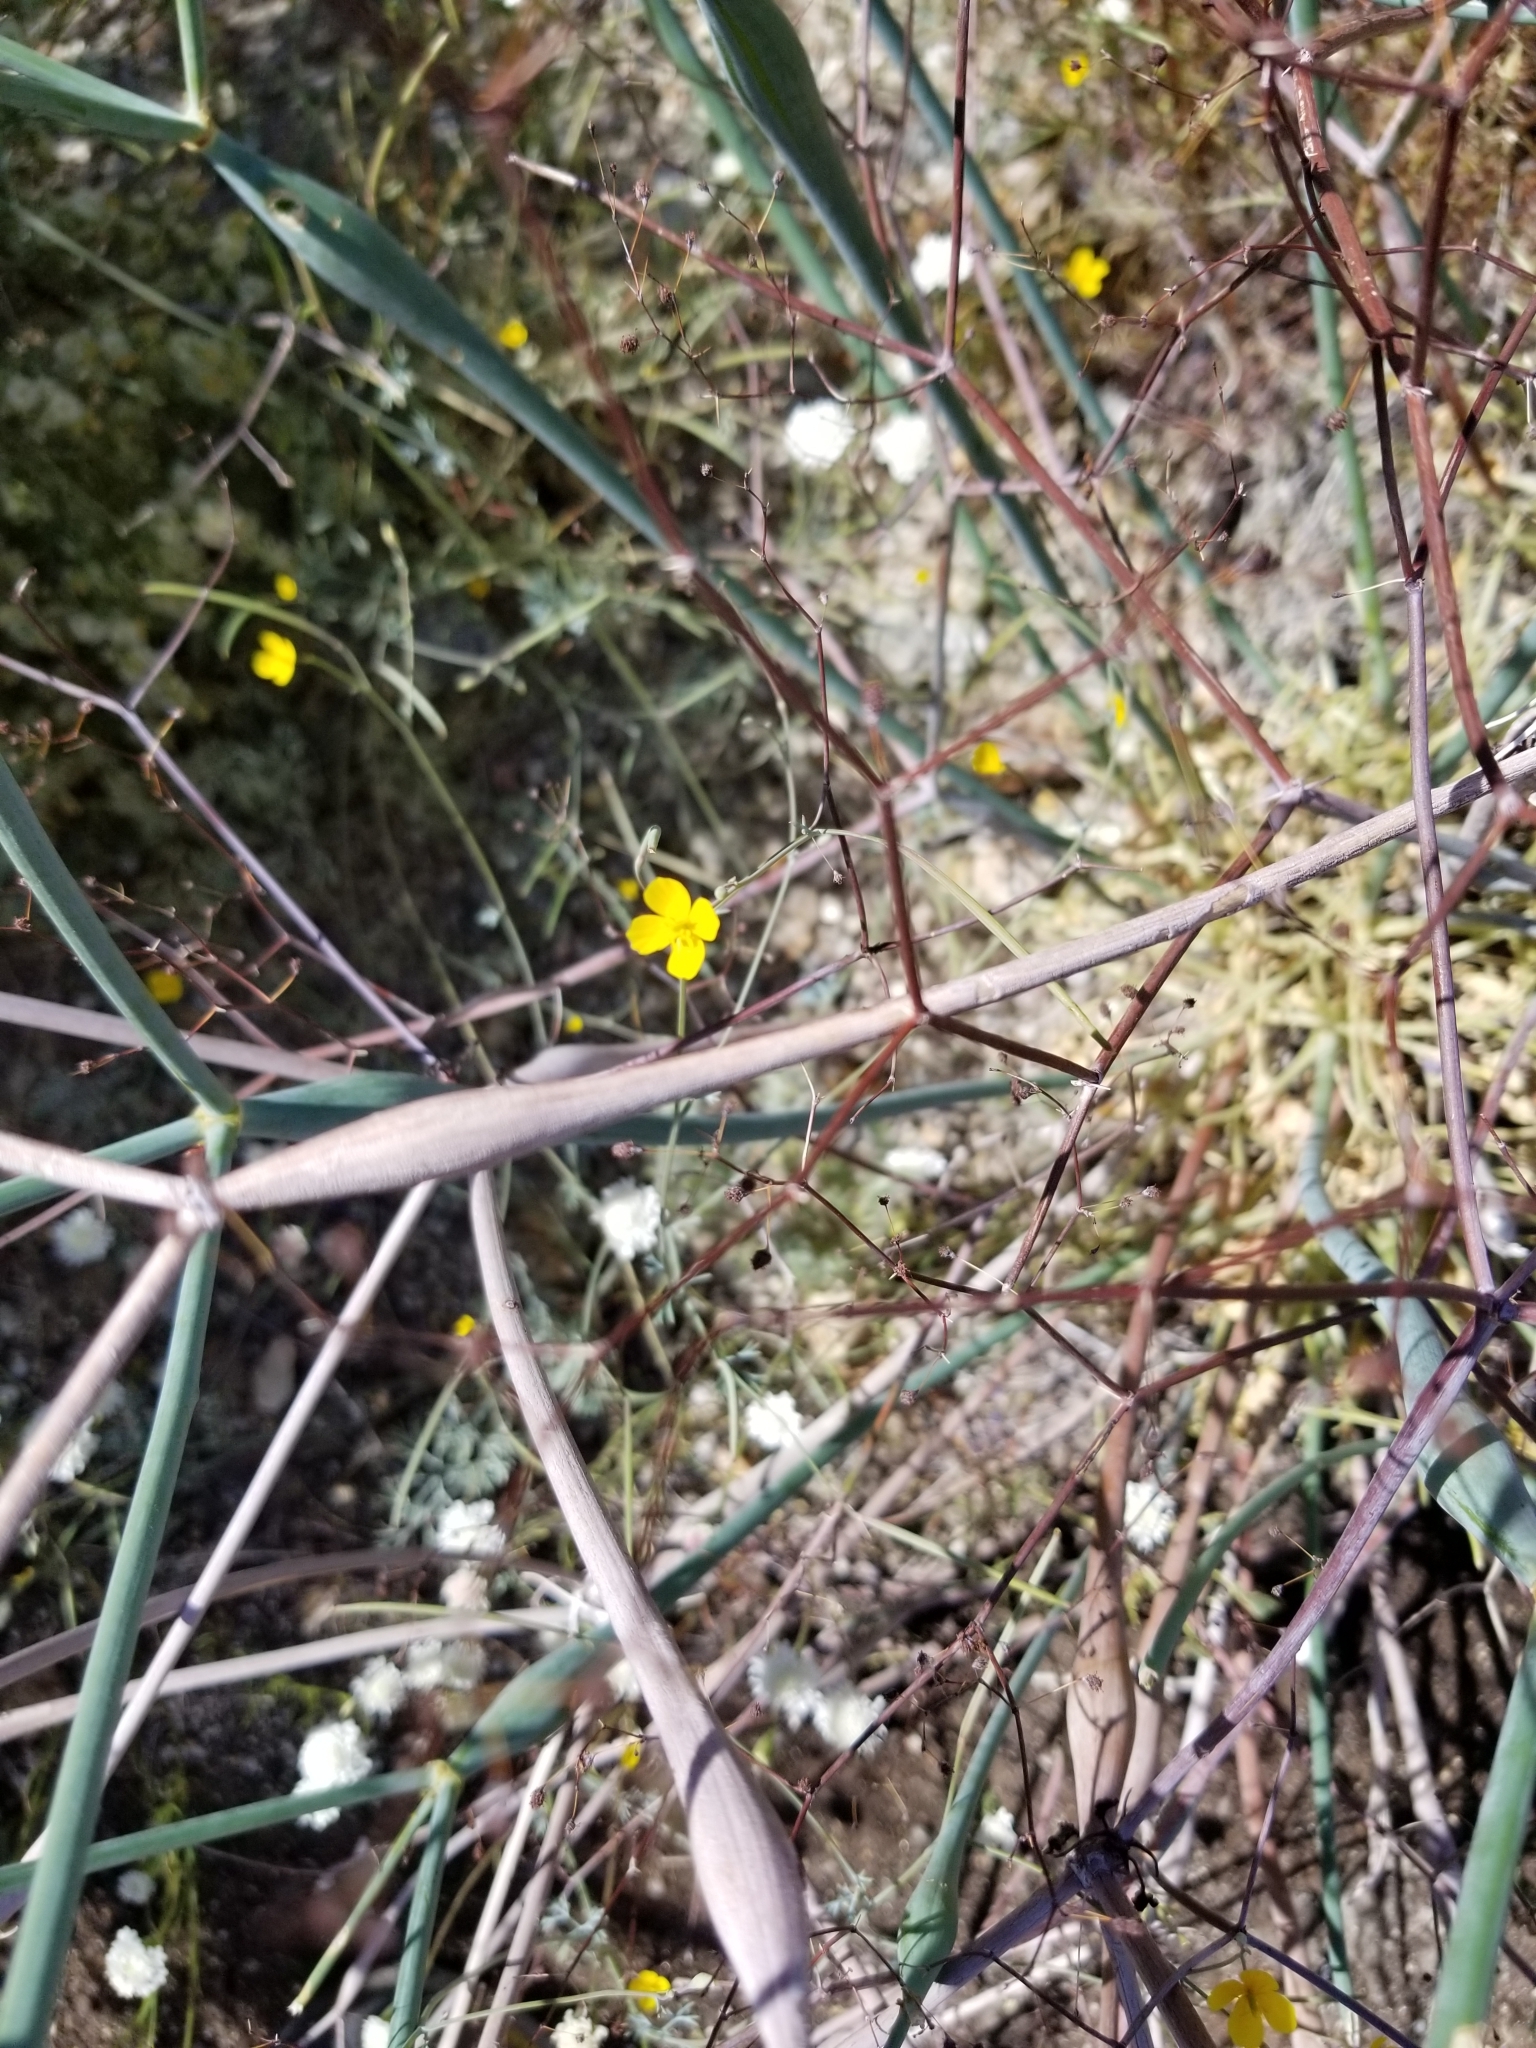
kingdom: Plantae
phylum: Tracheophyta
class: Magnoliopsida
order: Caryophyllales
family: Polygonaceae
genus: Eriogonum
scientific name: Eriogonum inflatum
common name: Desert trumpet
